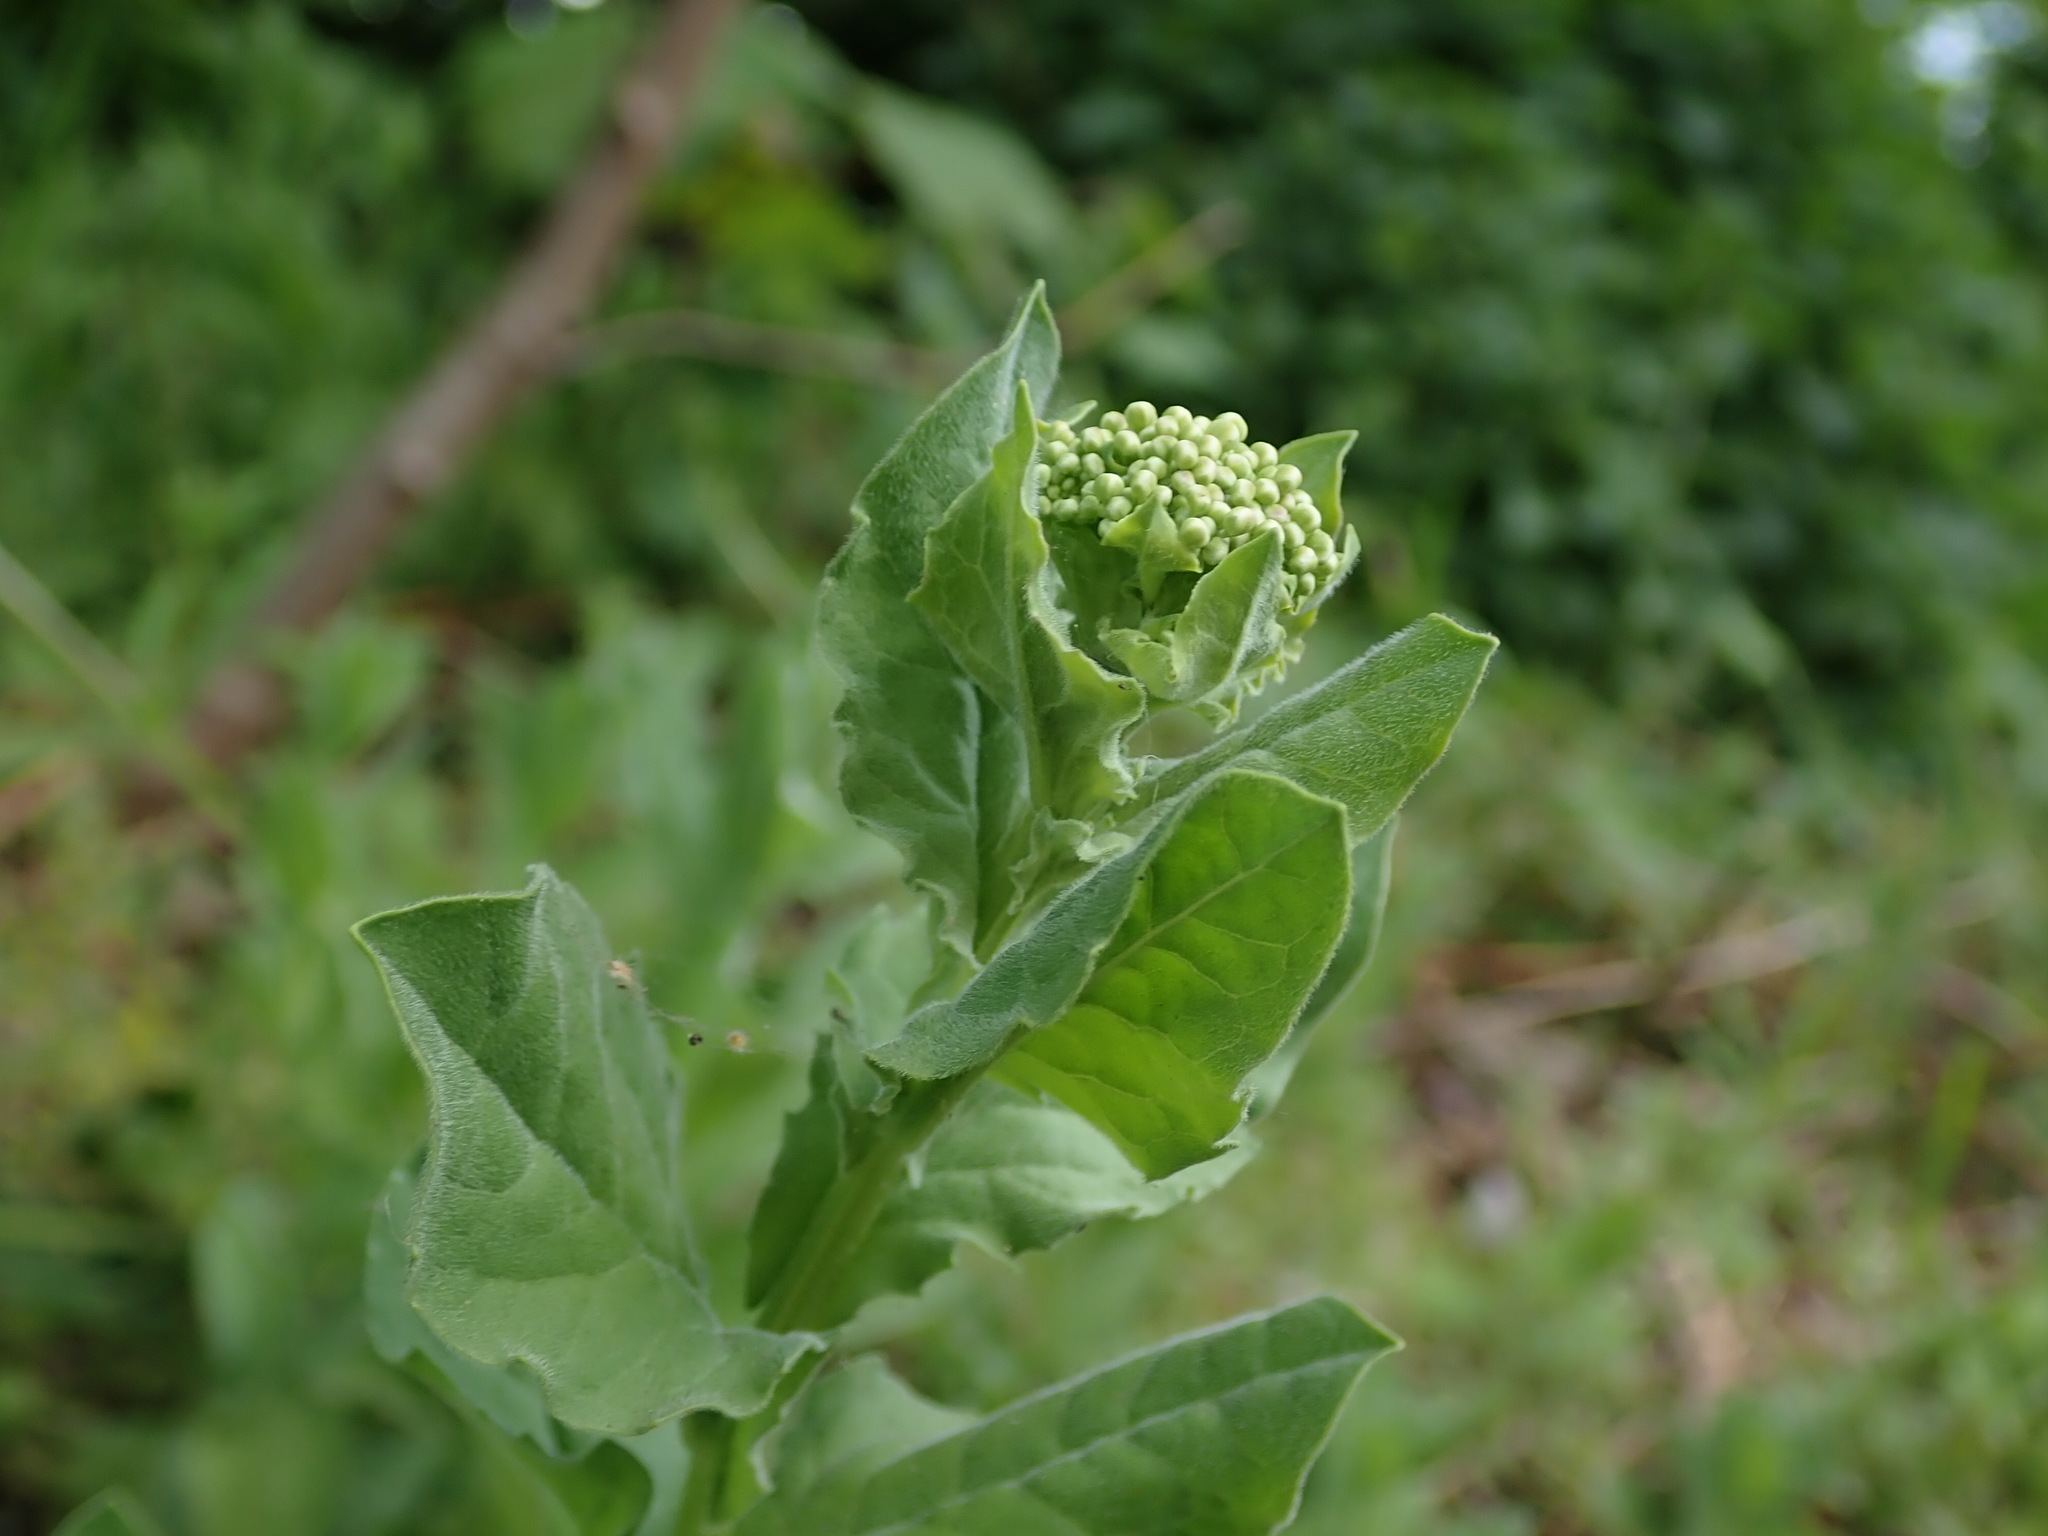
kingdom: Plantae
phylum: Tracheophyta
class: Magnoliopsida
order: Brassicales
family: Brassicaceae
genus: Lepidium
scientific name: Lepidium draba
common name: Hoary cress
